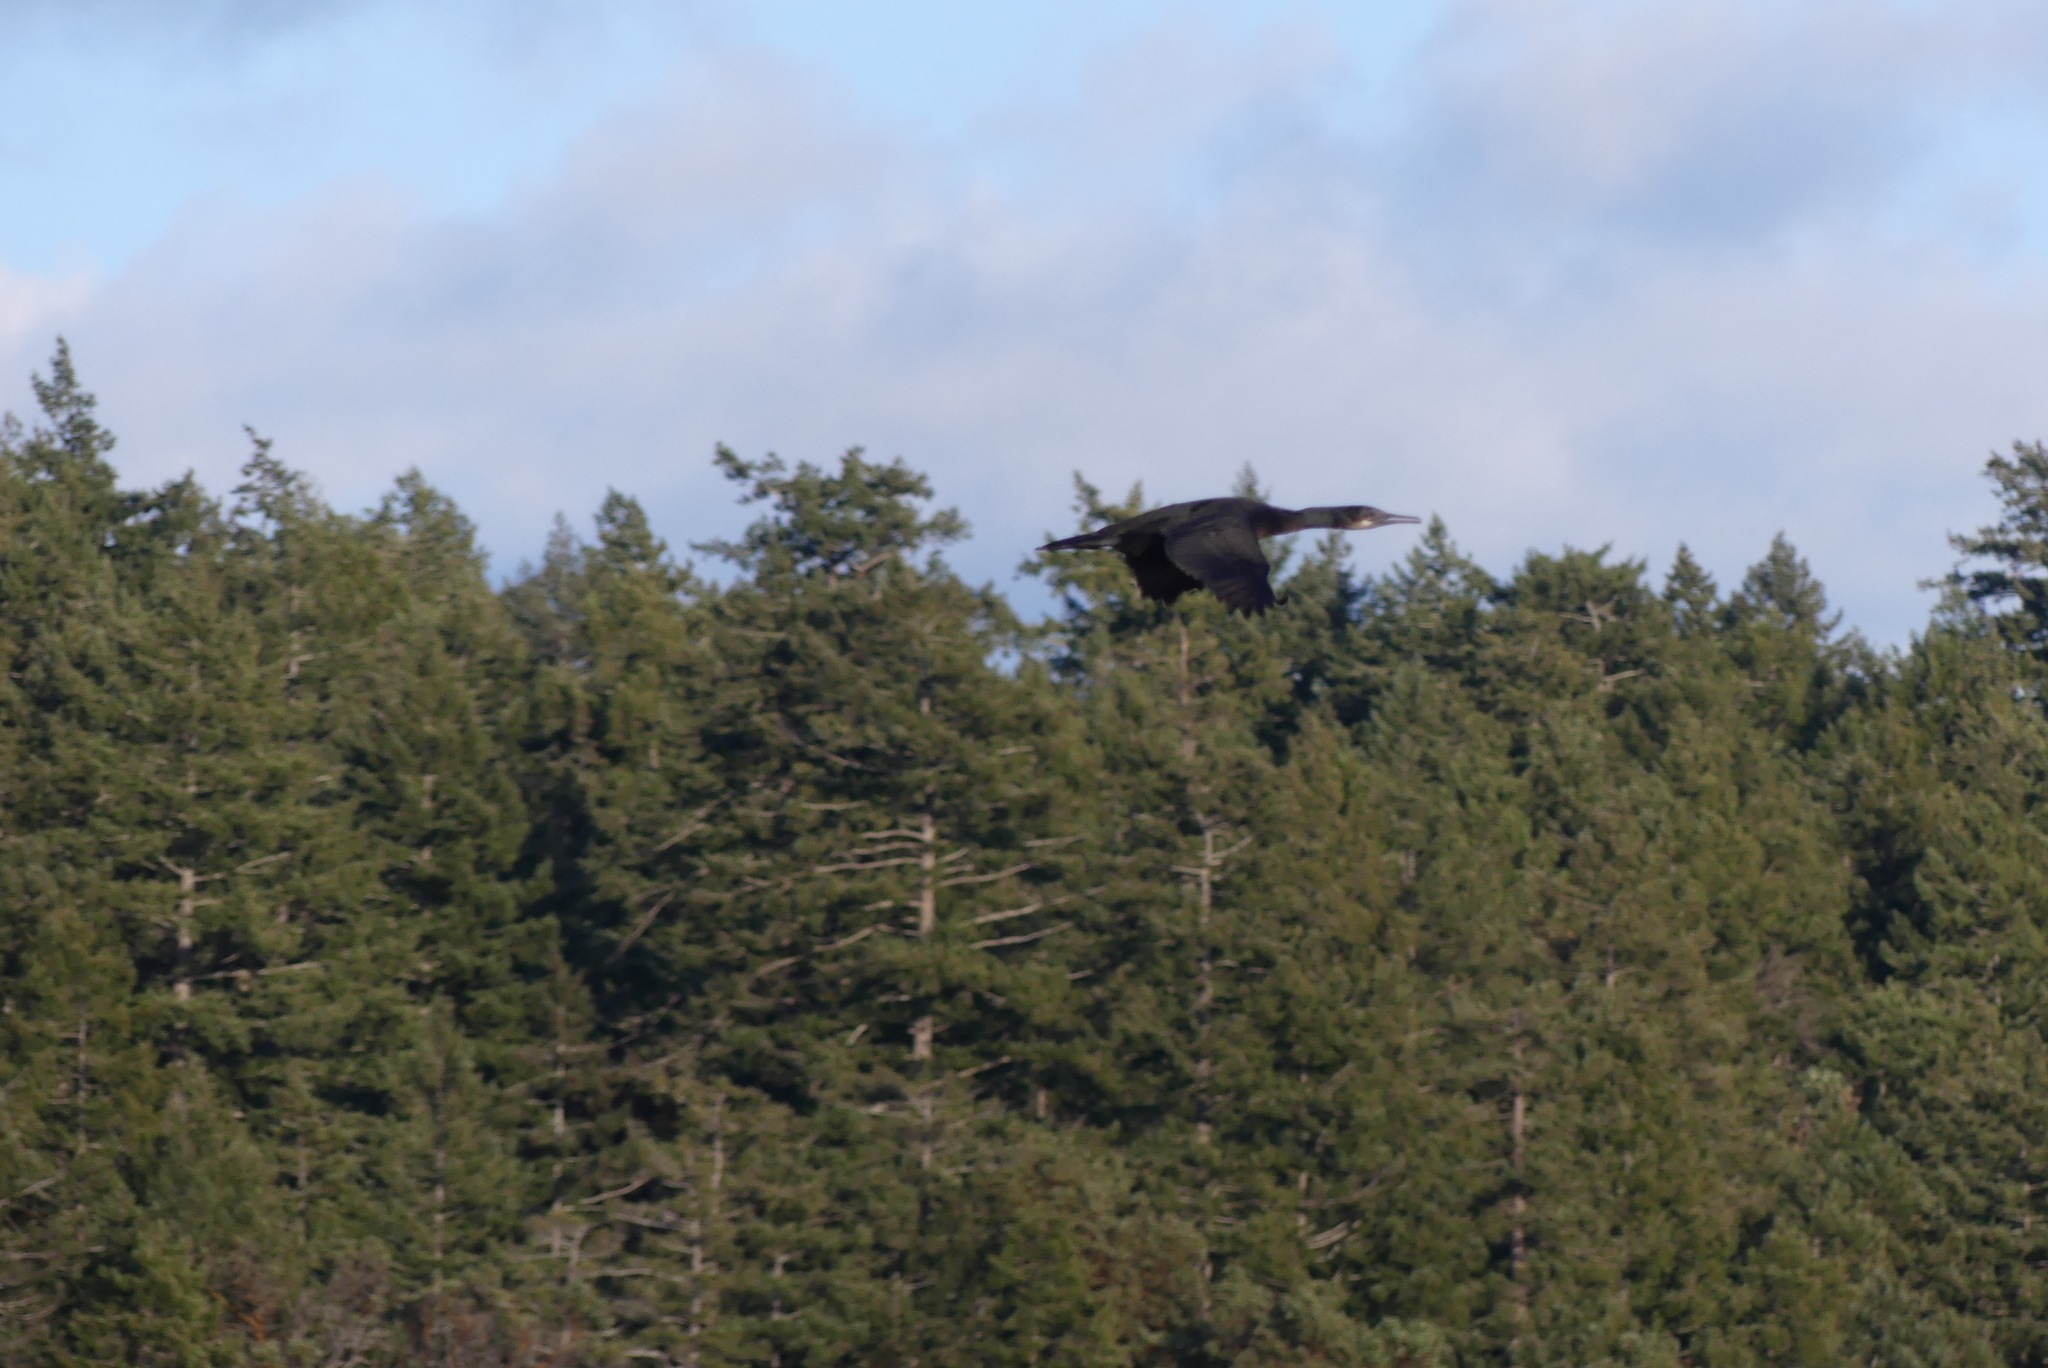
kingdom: Animalia
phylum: Chordata
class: Aves
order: Suliformes
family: Phalacrocoracidae
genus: Urile
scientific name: Urile penicillatus
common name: Brandt's cormorant
